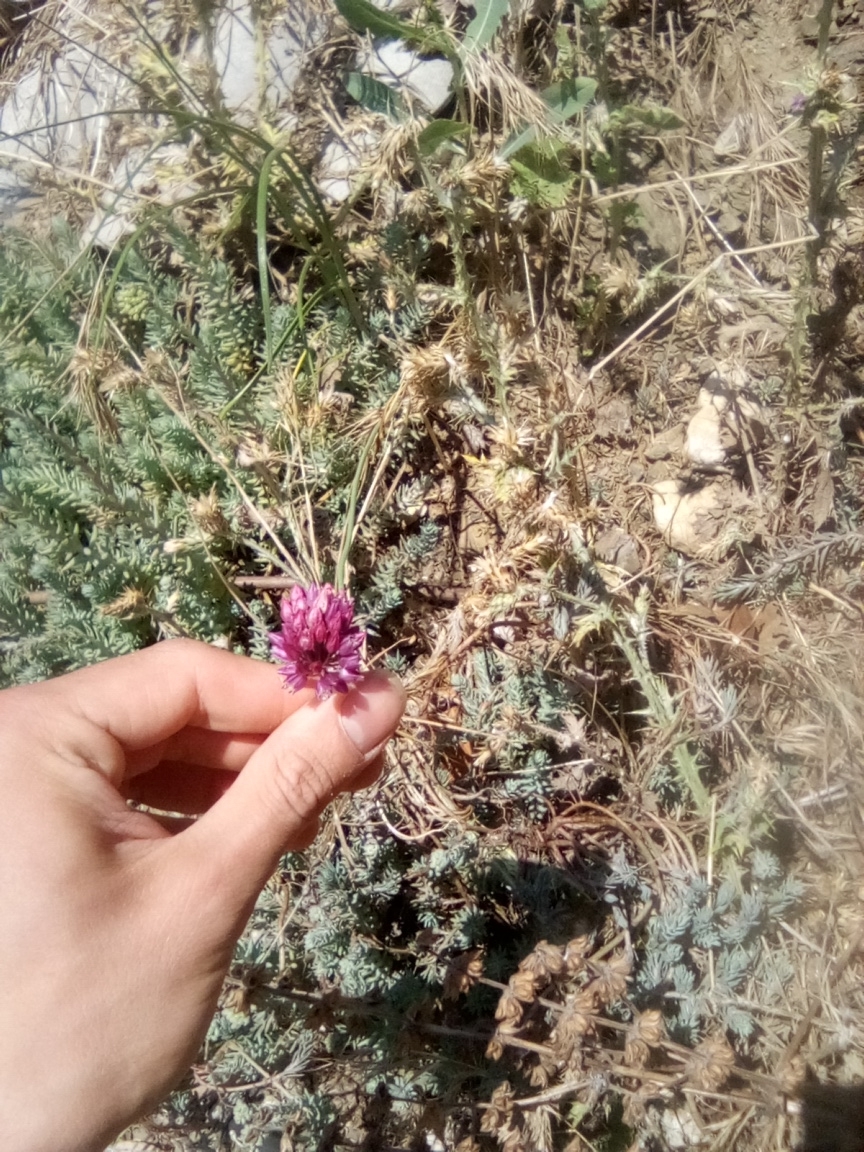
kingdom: Plantae
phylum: Tracheophyta
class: Liliopsida
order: Asparagales
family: Amaryllidaceae
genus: Allium
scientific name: Allium rotundum
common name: Sand leek
